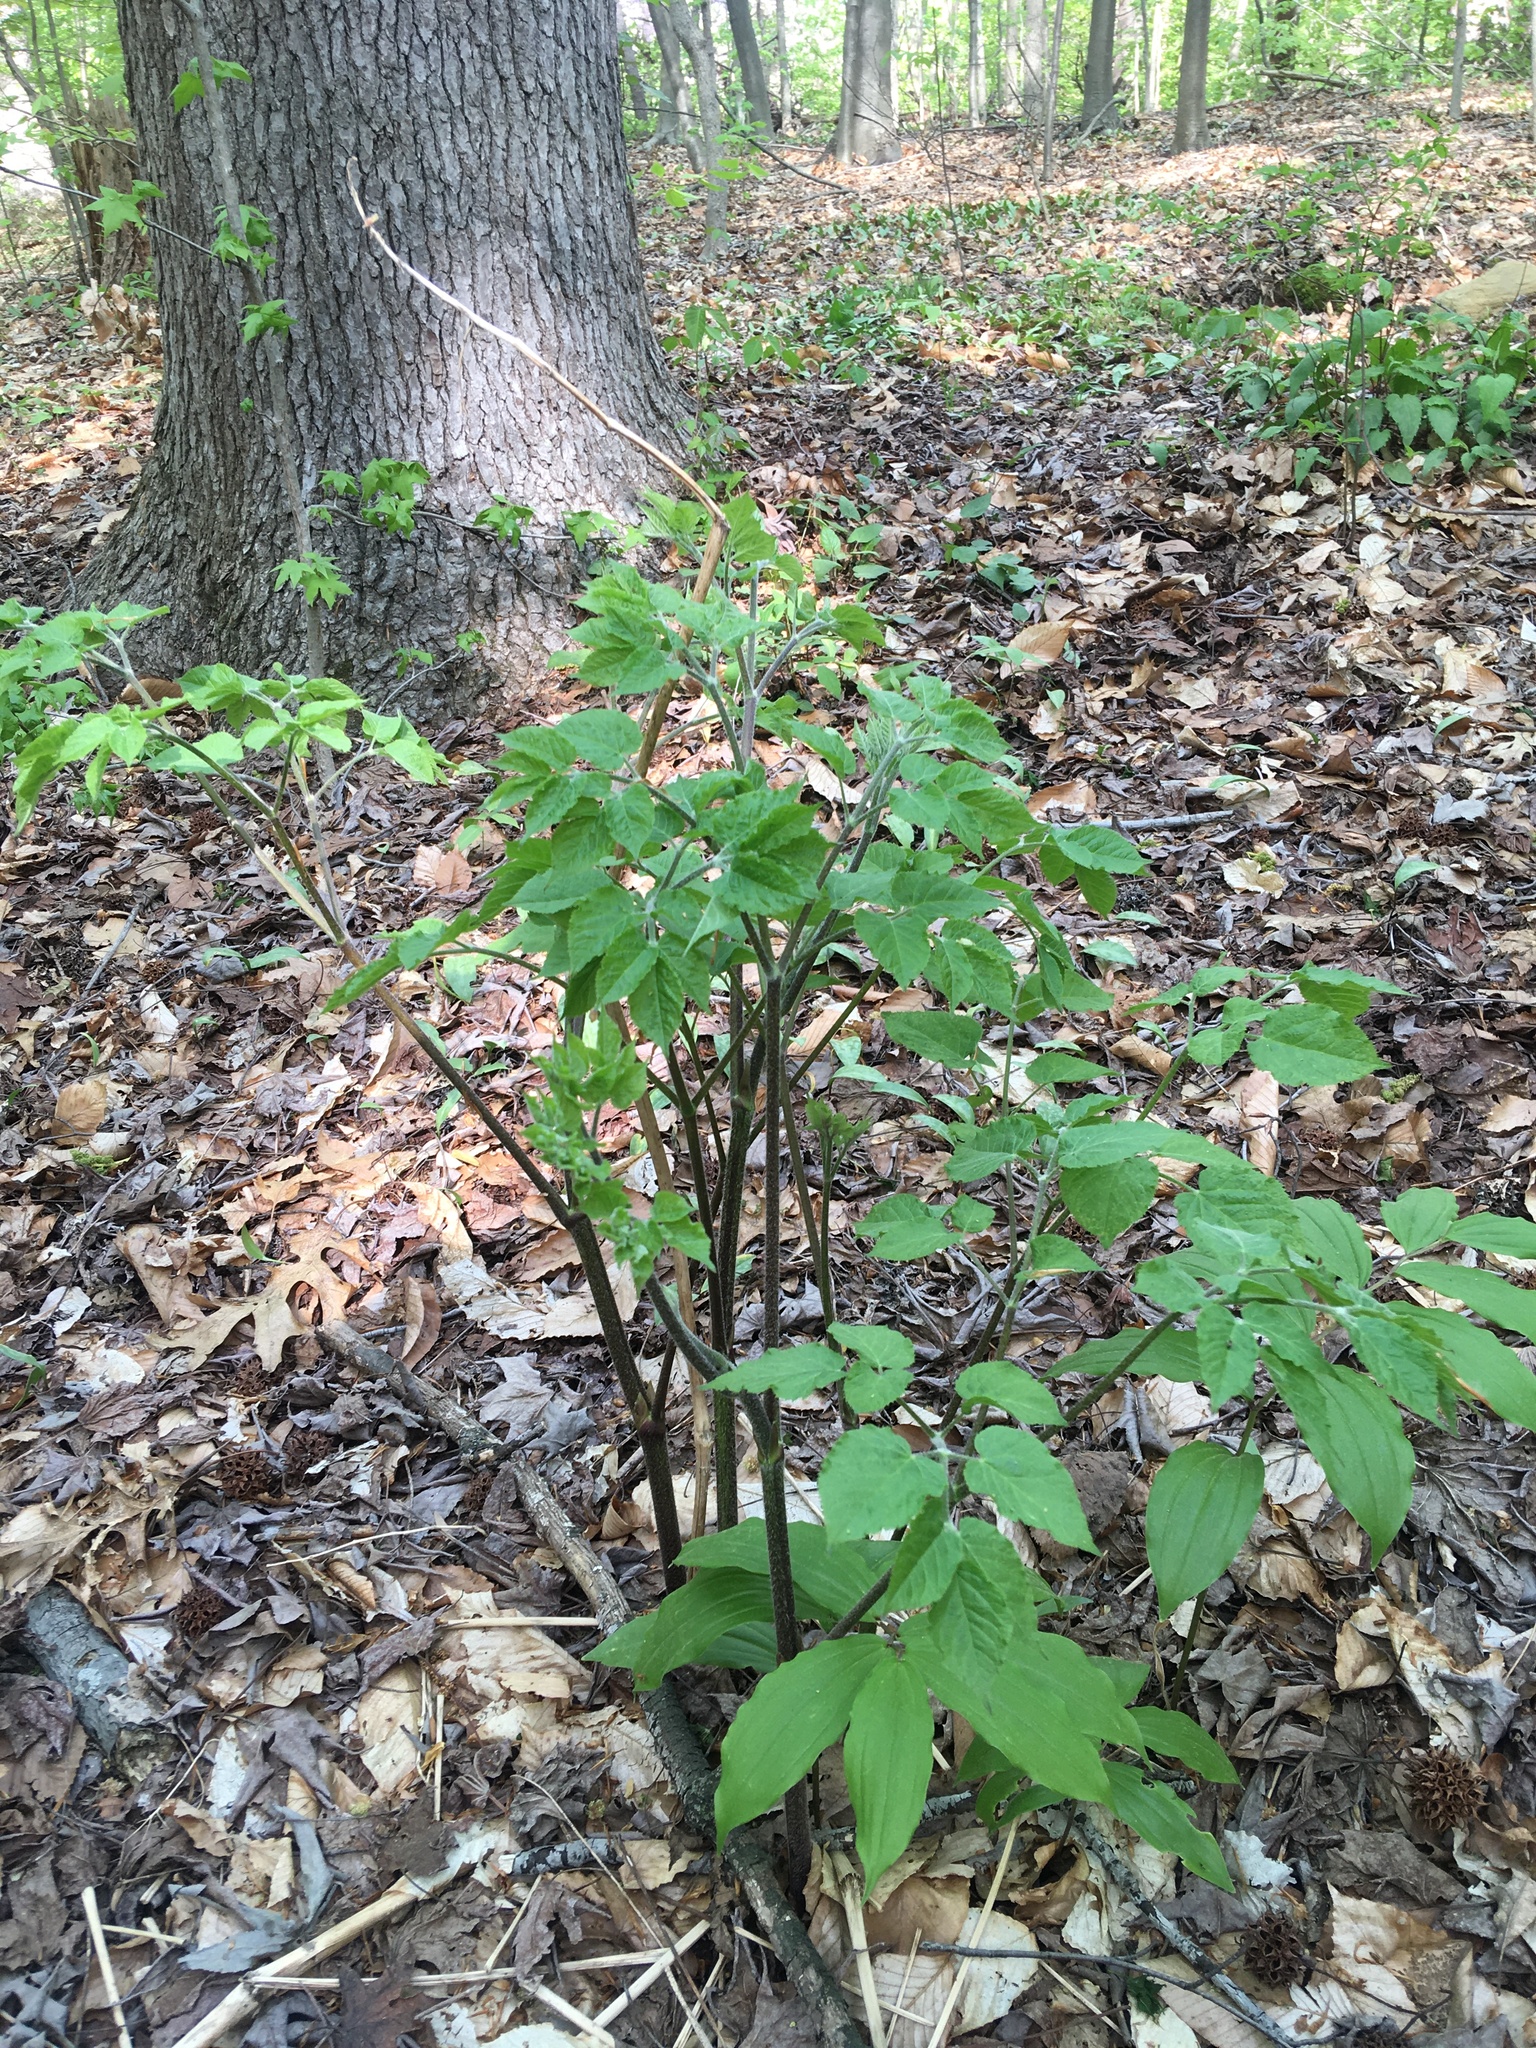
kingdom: Plantae
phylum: Tracheophyta
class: Magnoliopsida
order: Apiales
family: Araliaceae
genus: Aralia
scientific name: Aralia nudicaulis
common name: Wild sarsaparilla
